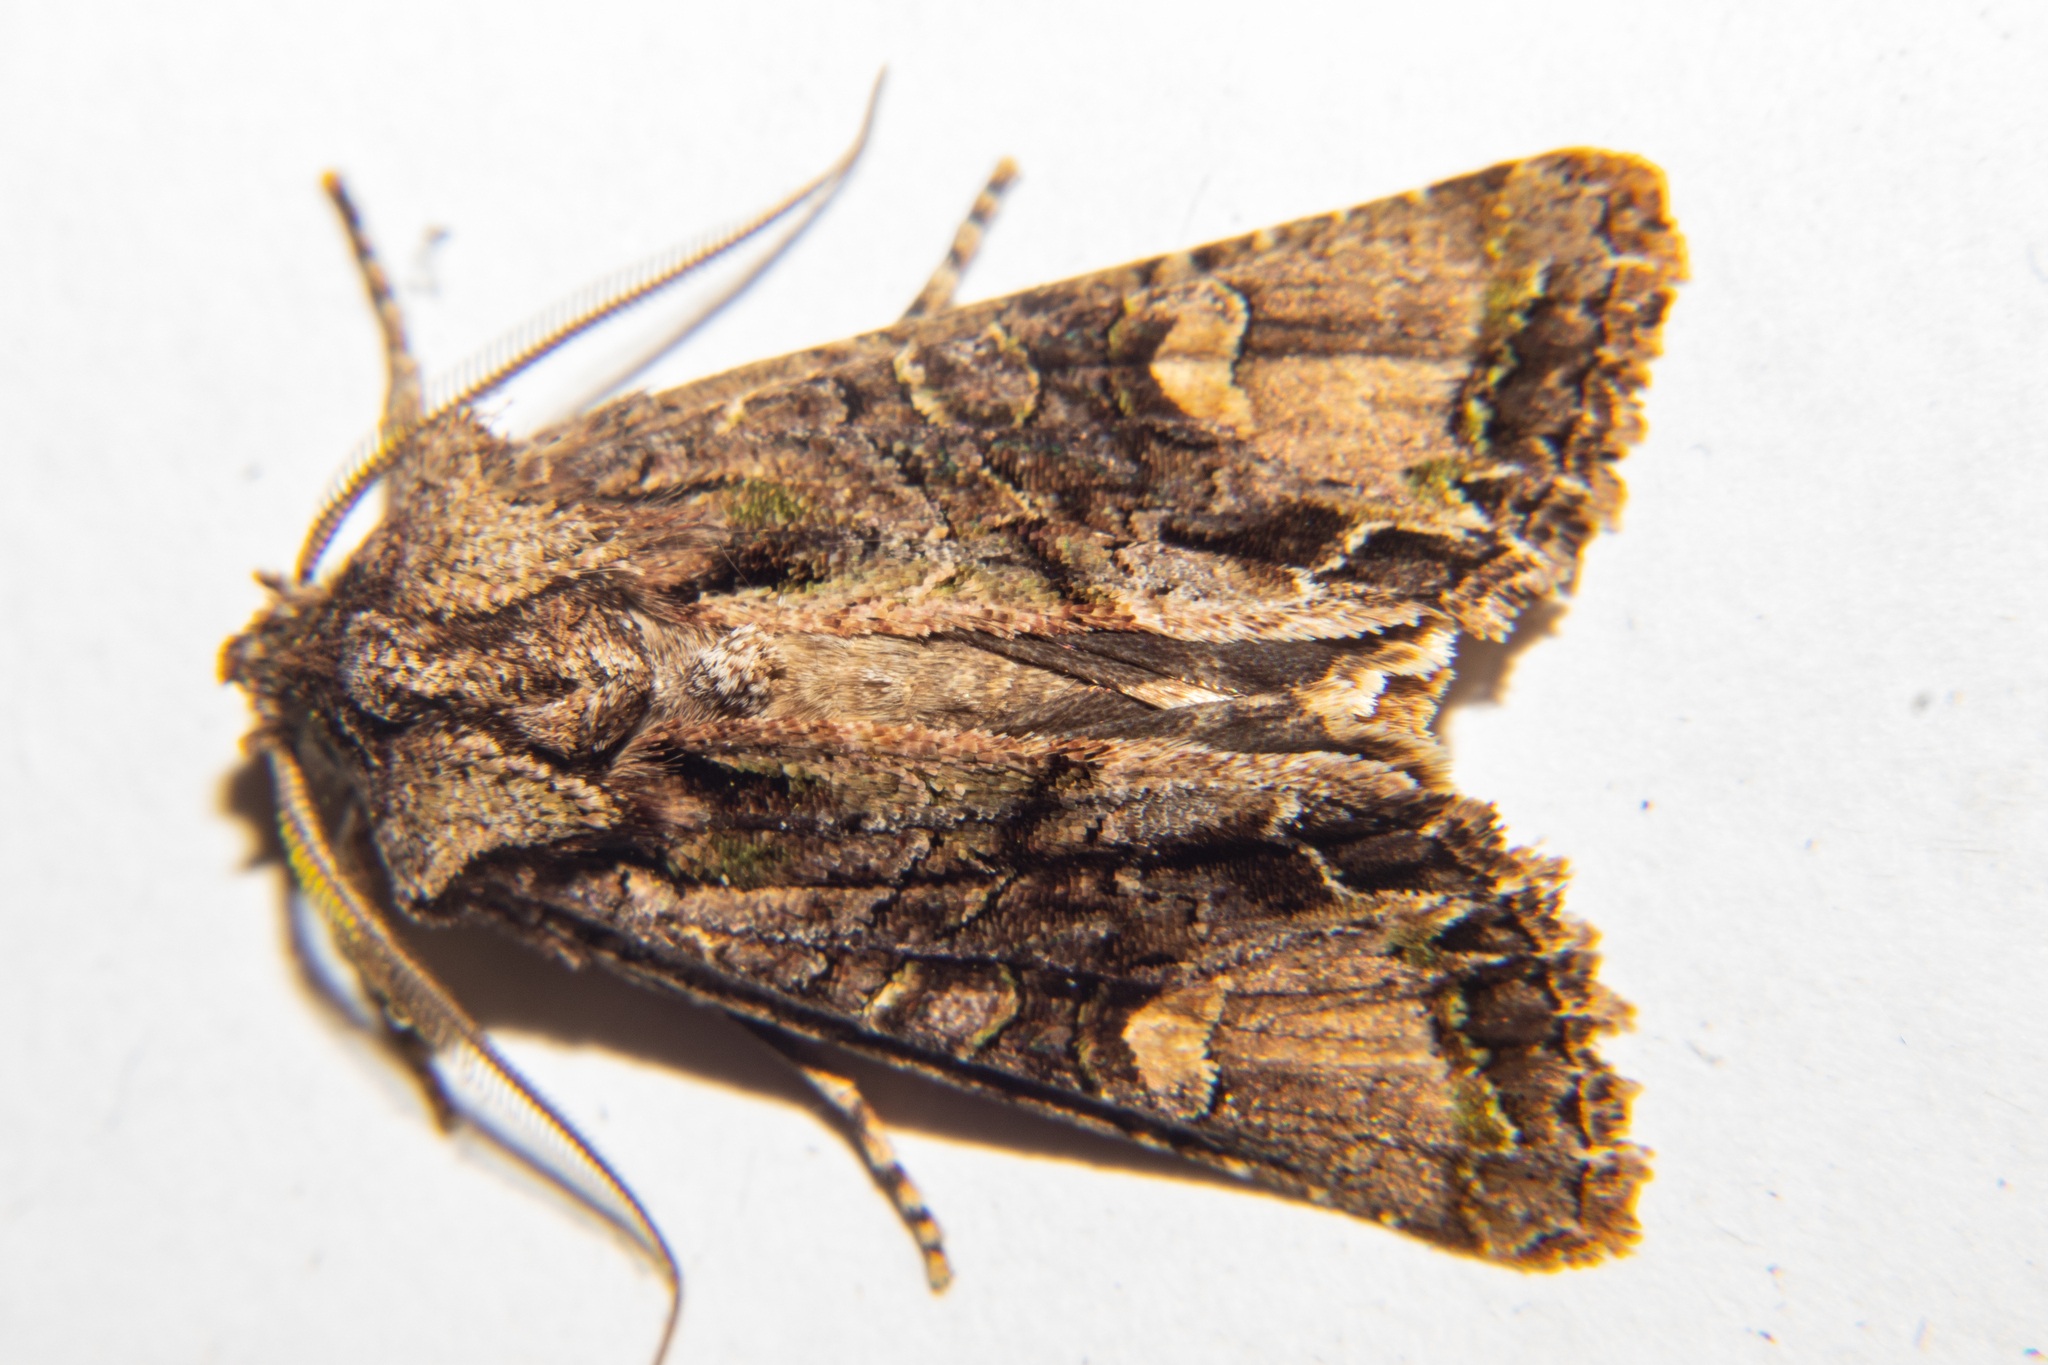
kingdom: Animalia
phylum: Arthropoda
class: Insecta
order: Lepidoptera
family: Noctuidae
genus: Ichneutica
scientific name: Ichneutica insignis
